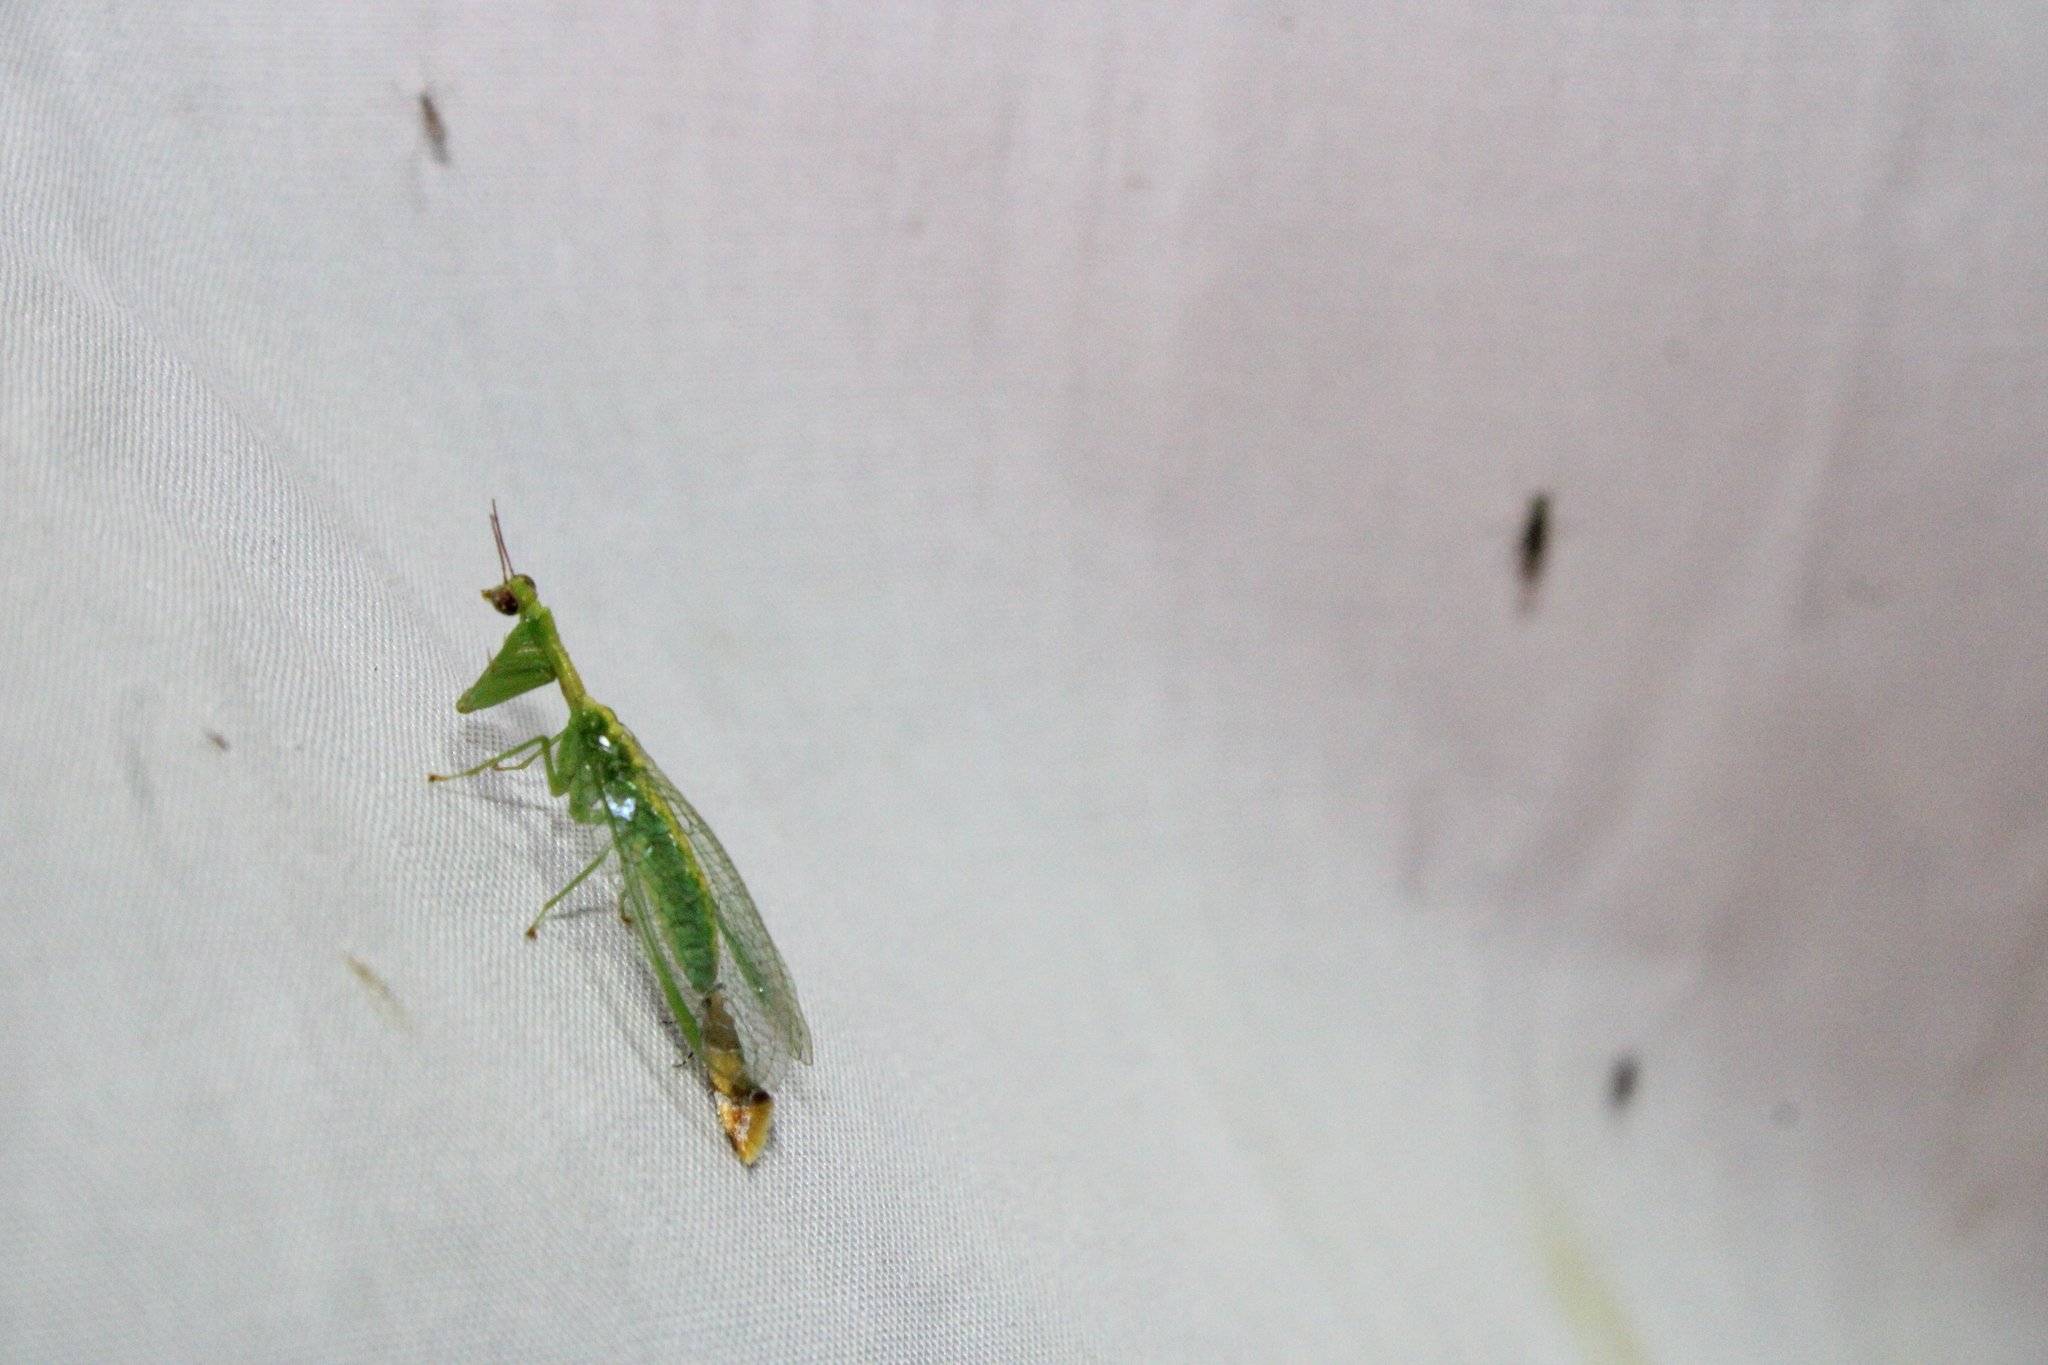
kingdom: Animalia
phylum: Arthropoda
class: Insecta
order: Neuroptera
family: Mantispidae
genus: Zeugomantispa
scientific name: Zeugomantispa minuta
